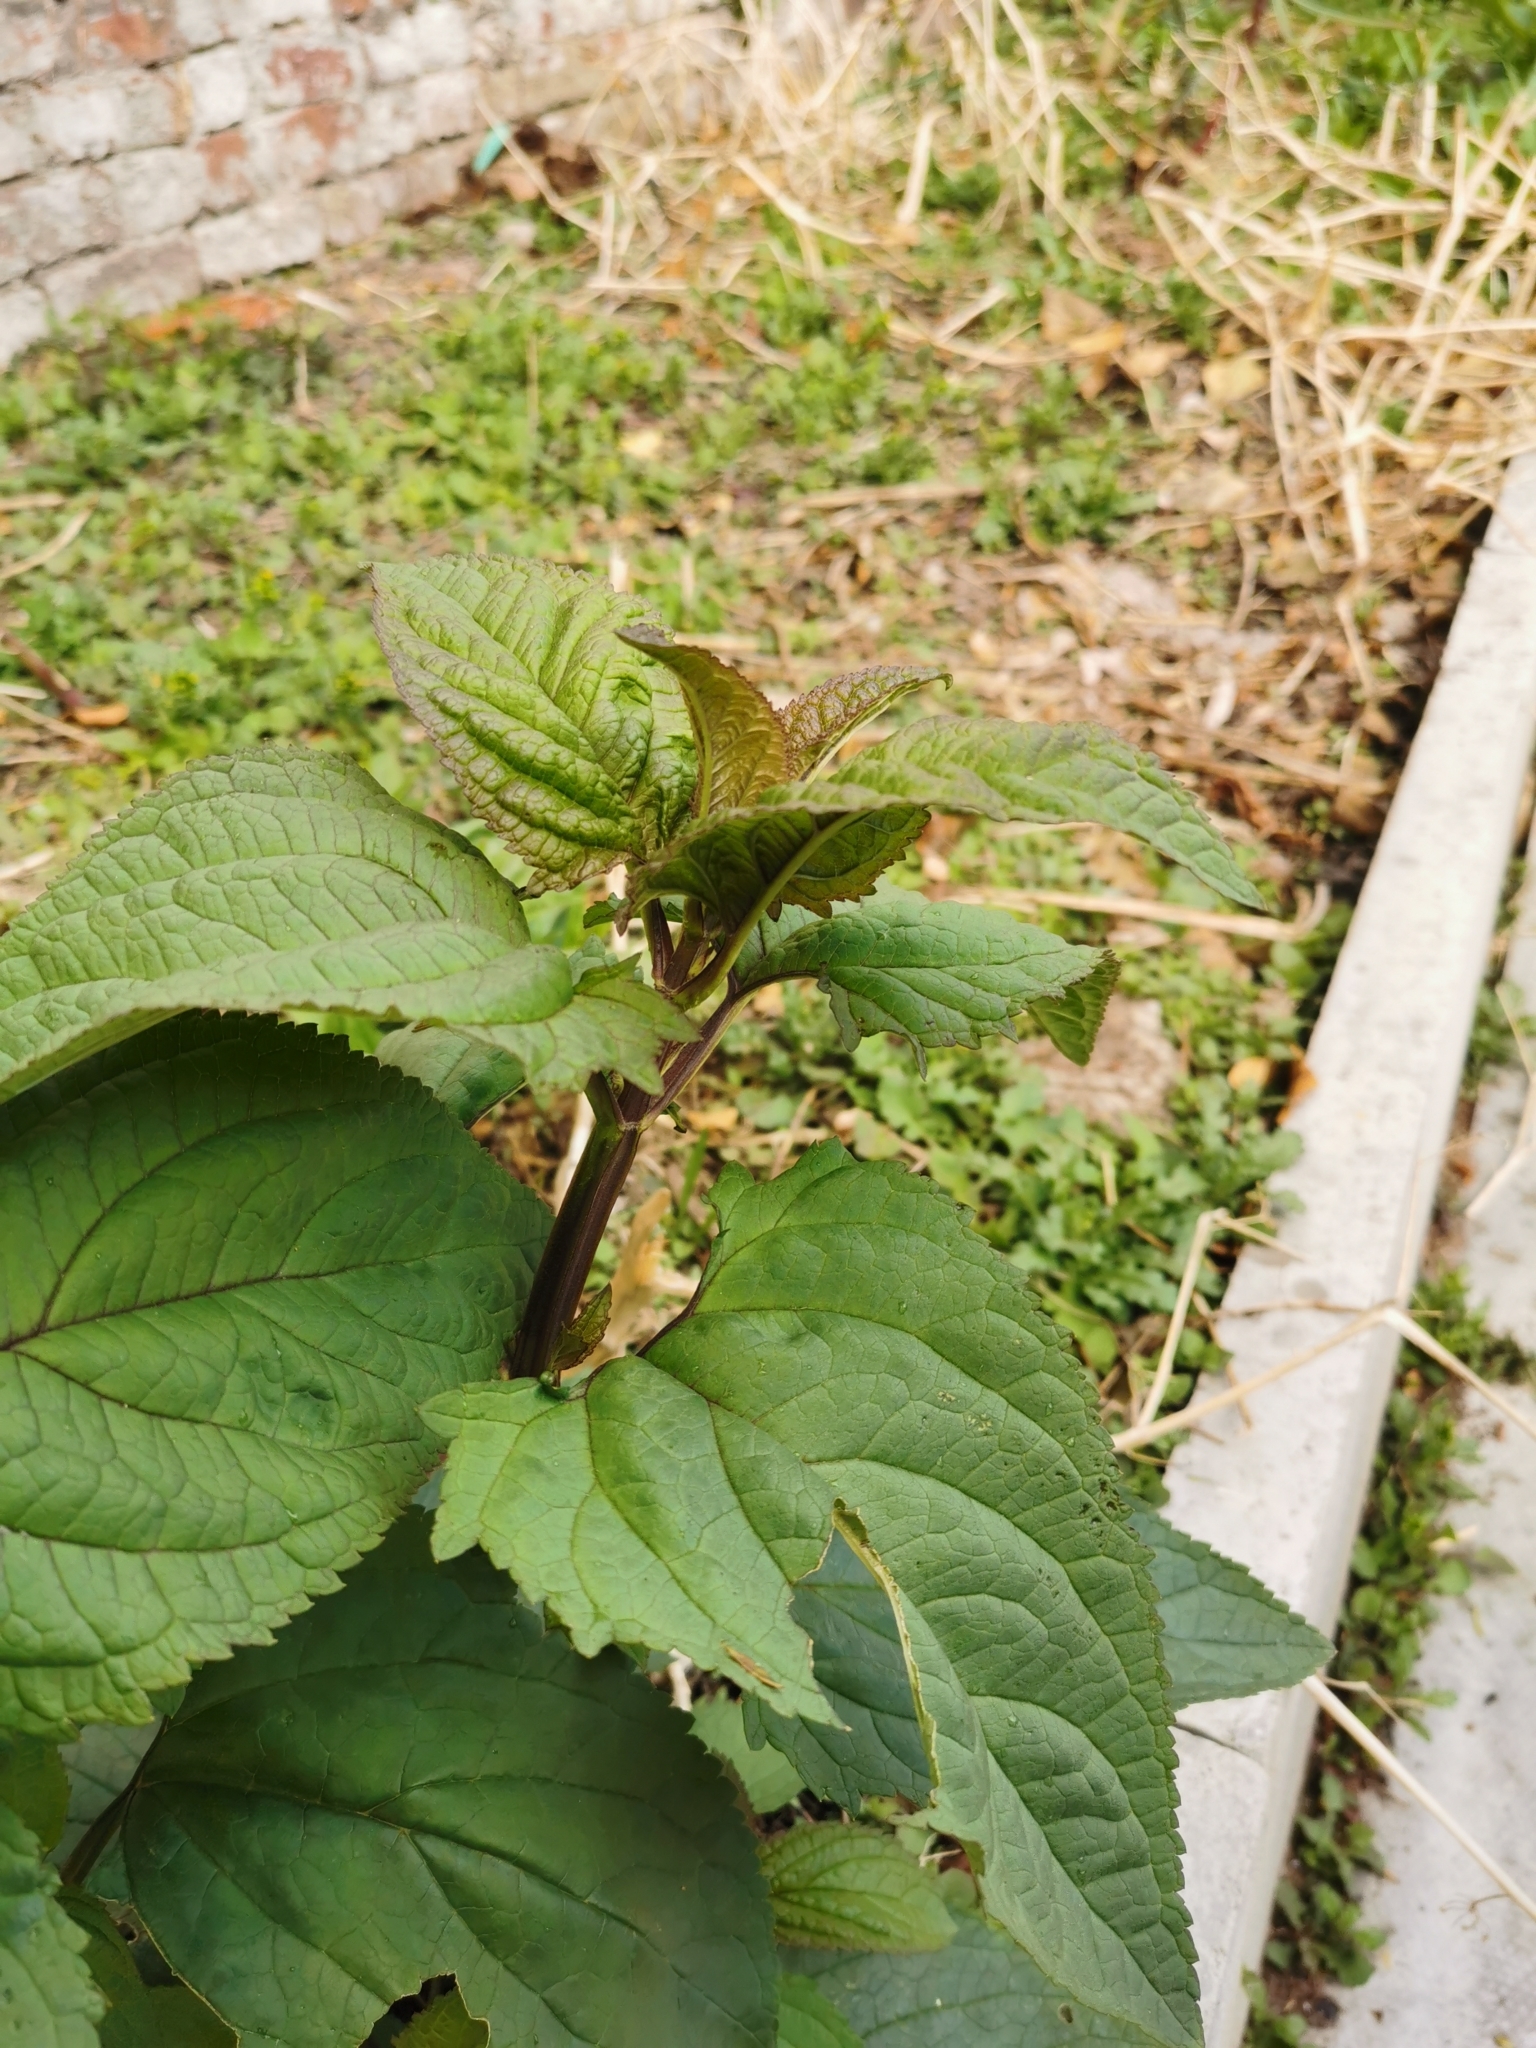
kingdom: Plantae
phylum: Tracheophyta
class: Magnoliopsida
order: Lamiales
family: Scrophulariaceae
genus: Scrophularia
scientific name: Scrophularia nodosa
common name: Common figwort
